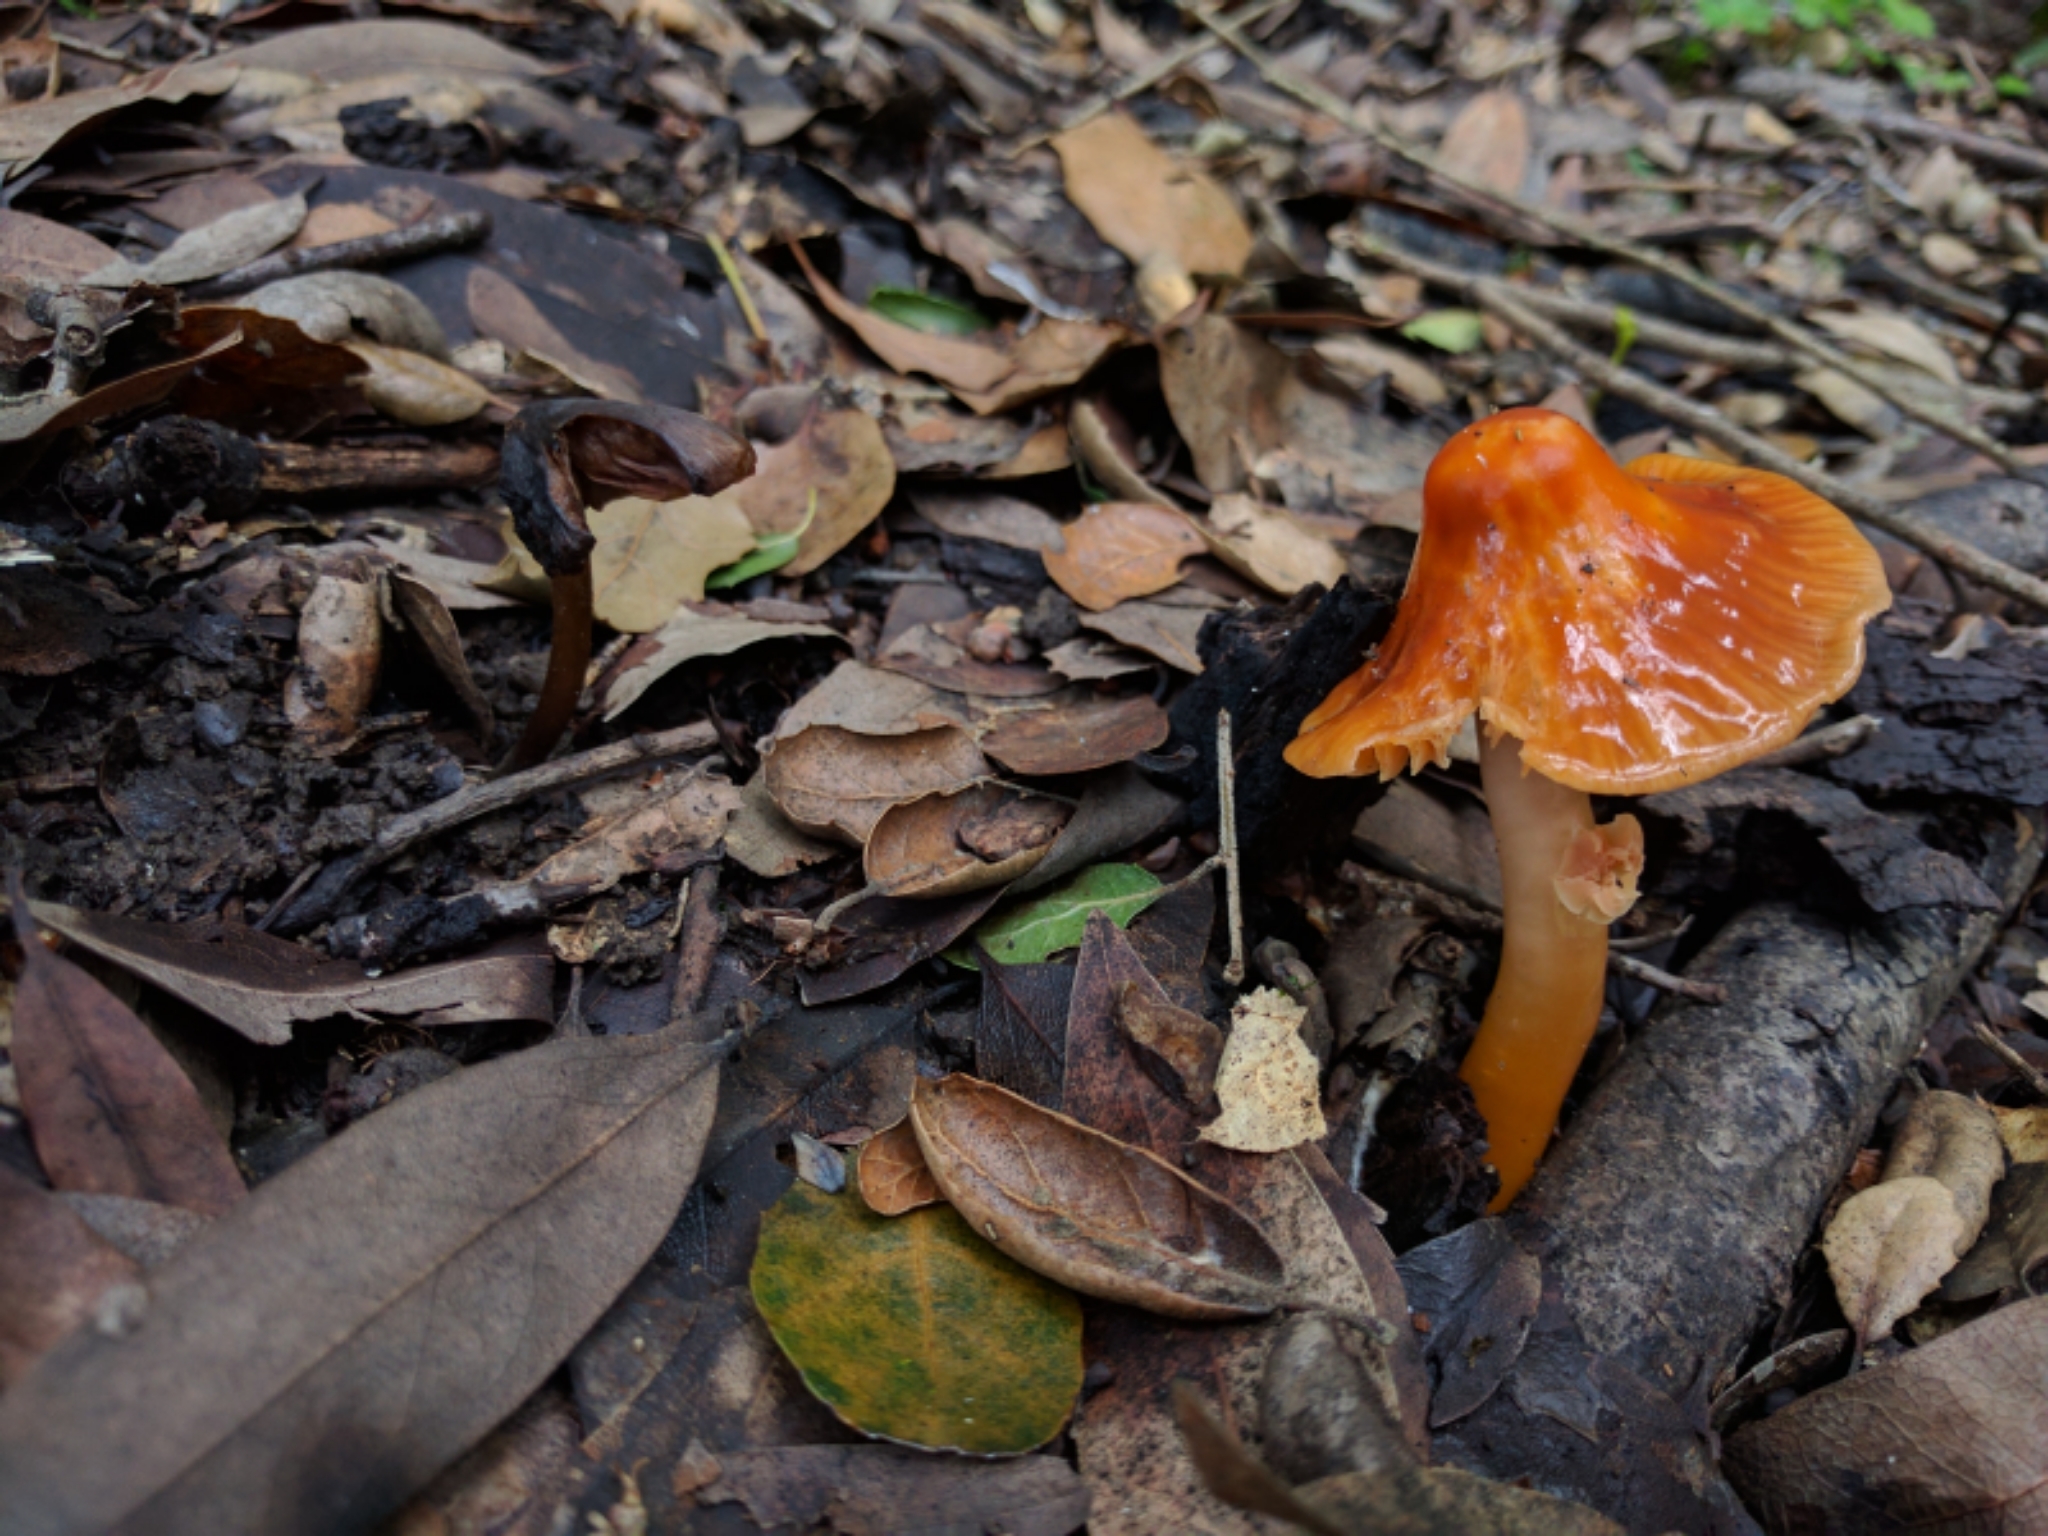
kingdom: Fungi
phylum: Basidiomycota
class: Agaricomycetes
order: Agaricales
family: Hygrophoraceae
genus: Gliophorus
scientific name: Gliophorus psittacinus
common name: Parrot wax-cap
